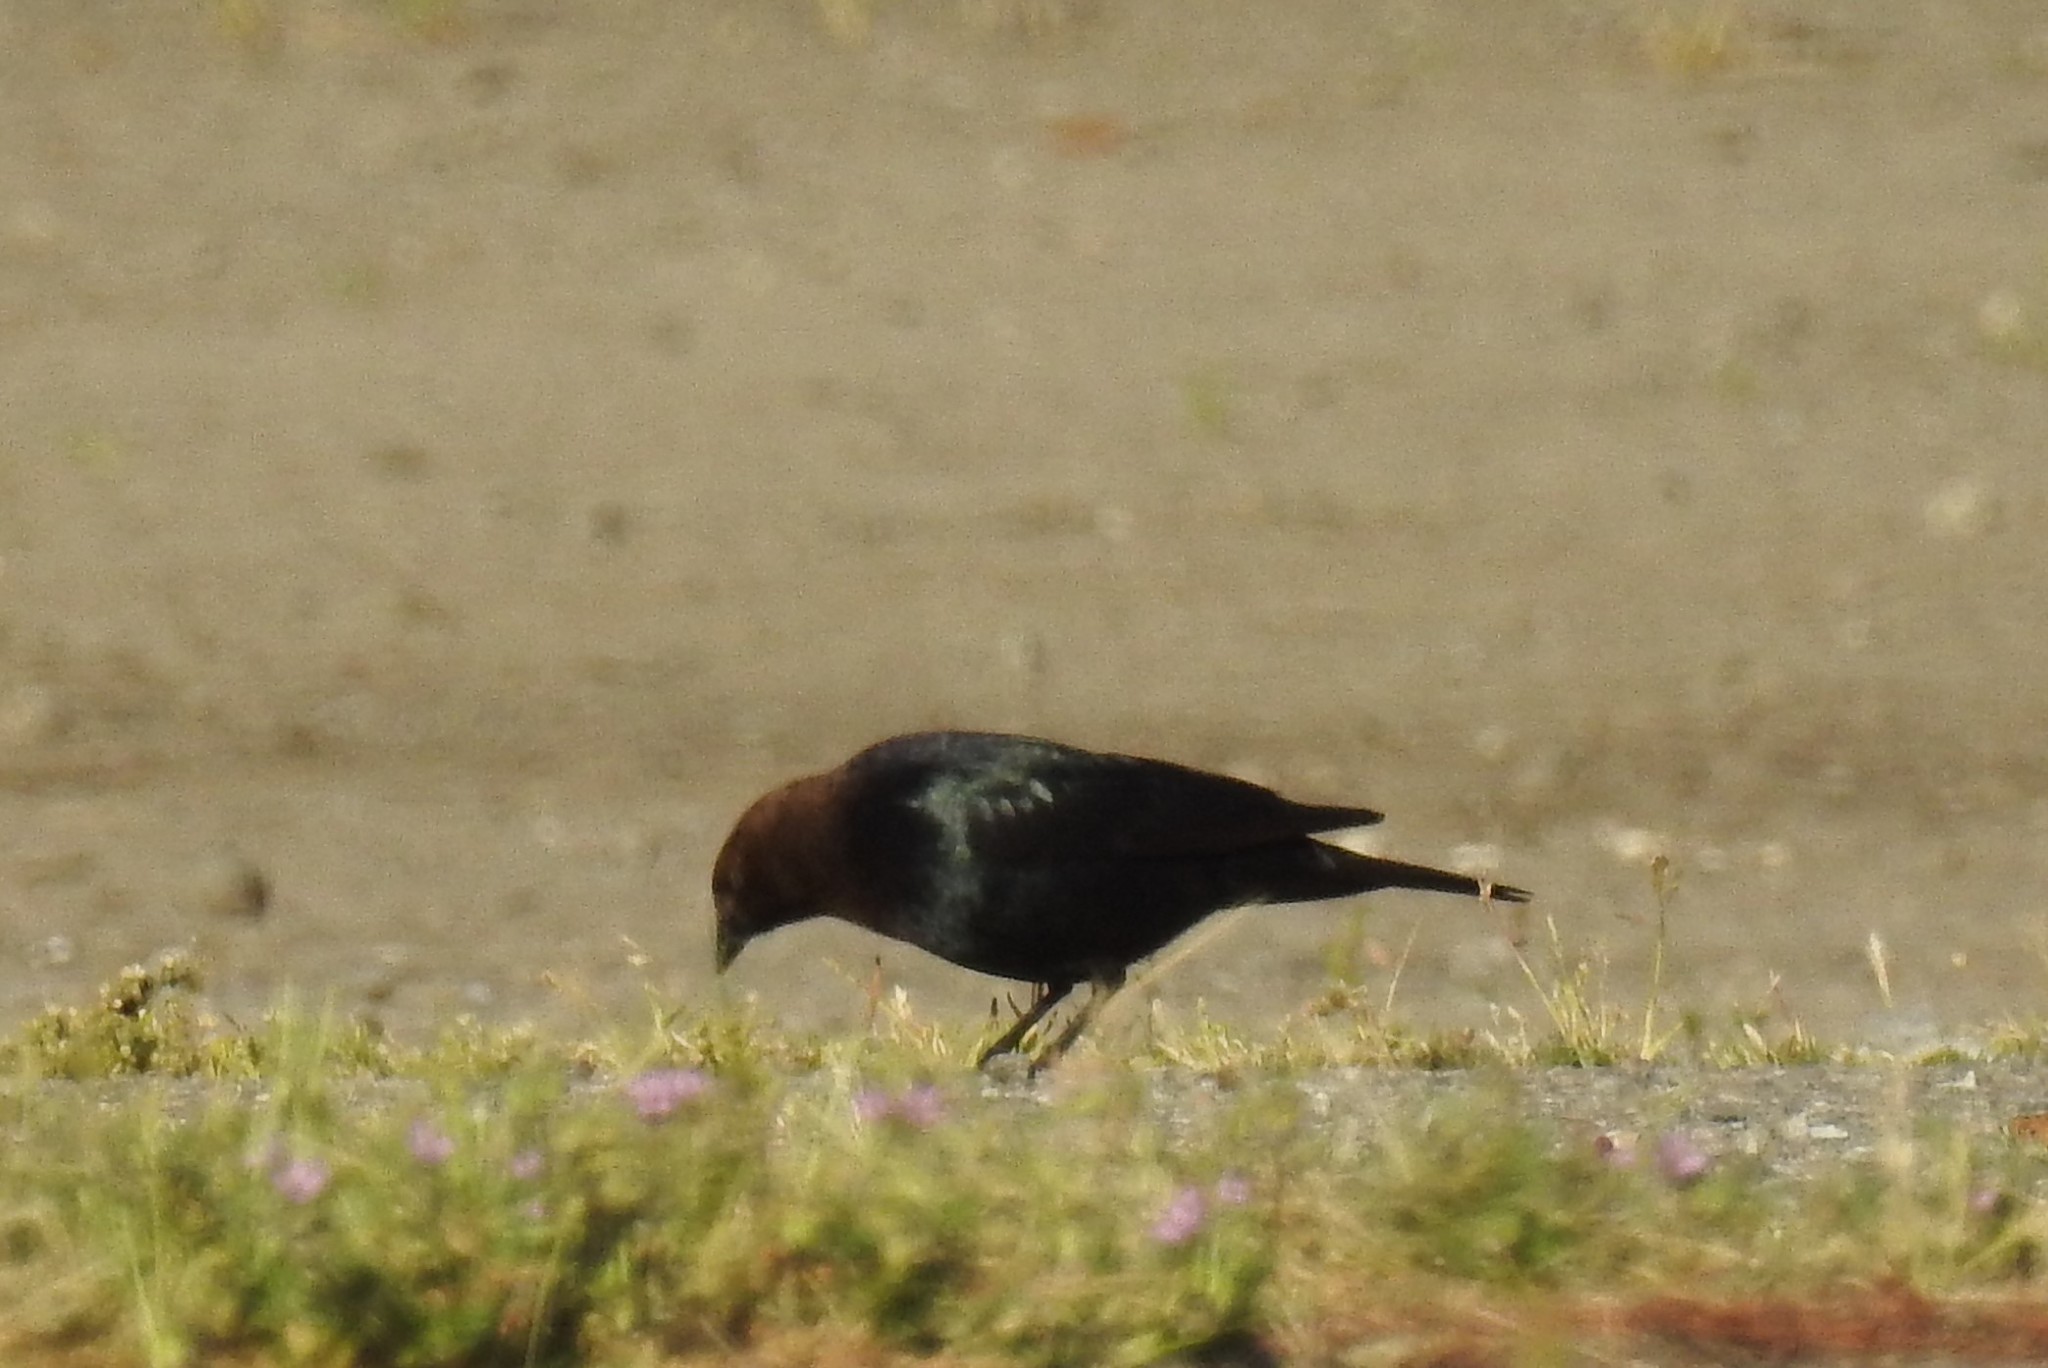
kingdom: Animalia
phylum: Chordata
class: Aves
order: Passeriformes
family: Icteridae
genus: Molothrus
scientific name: Molothrus ater
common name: Brown-headed cowbird
